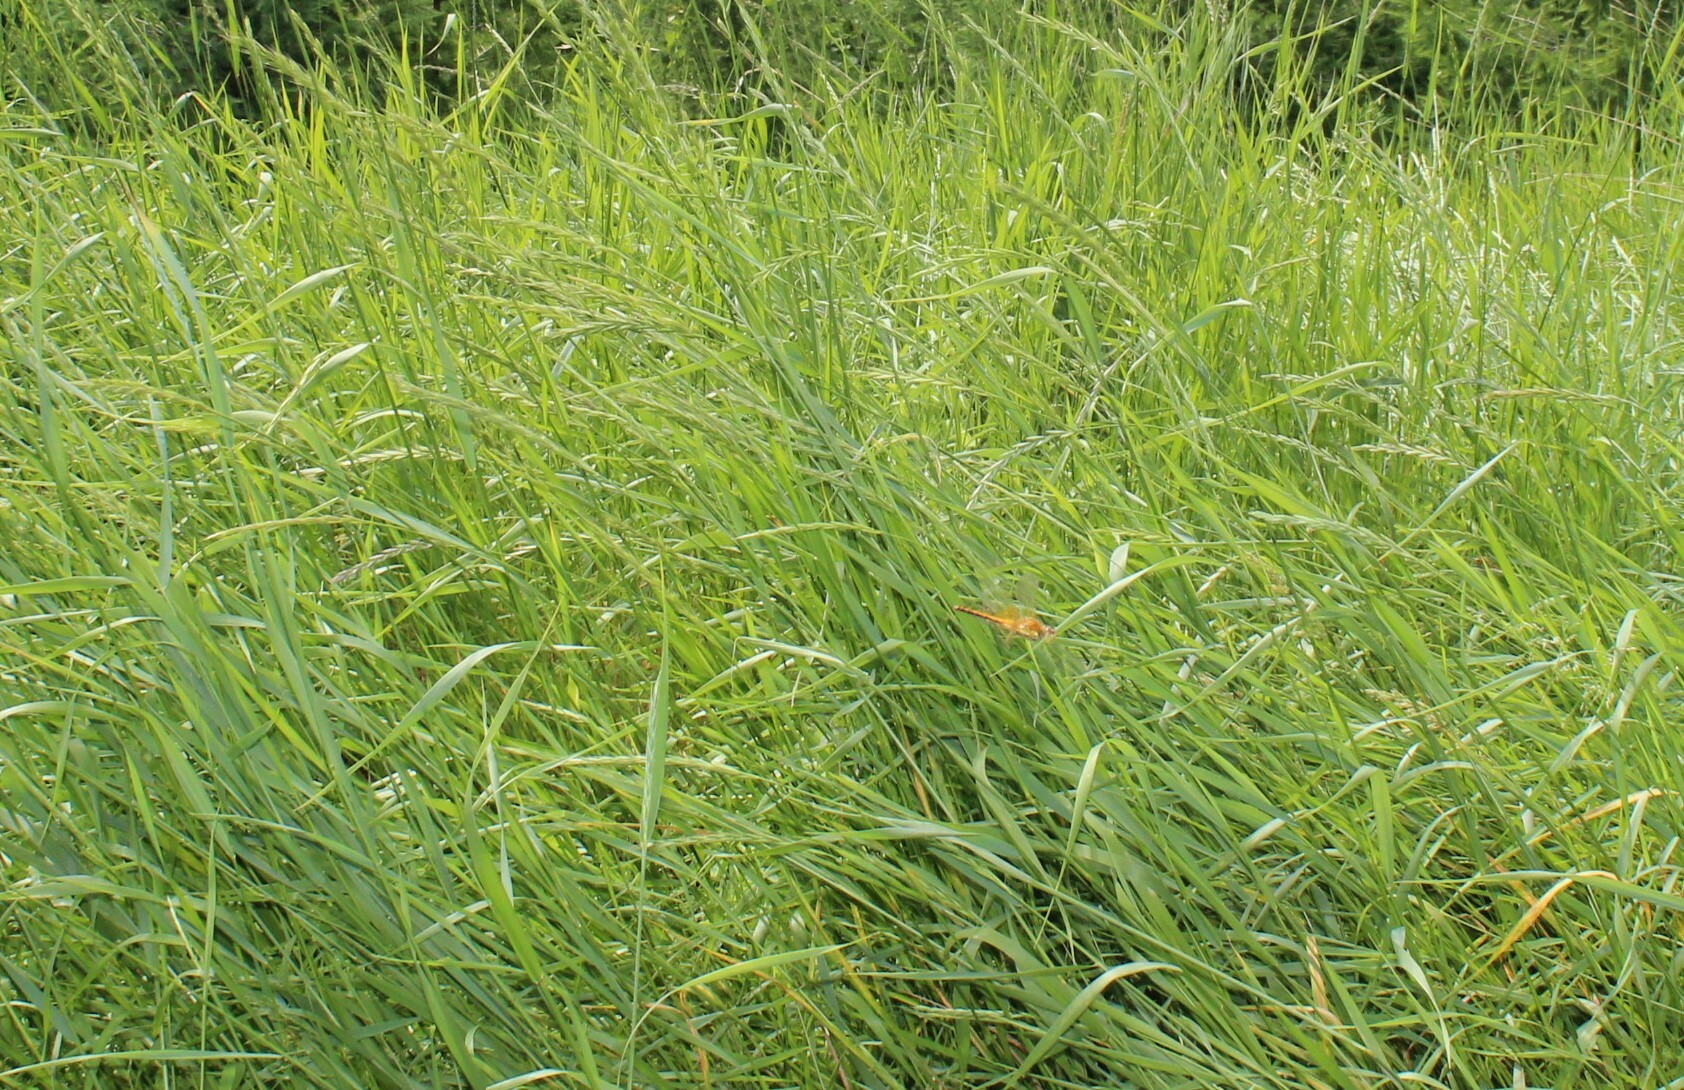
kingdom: Animalia
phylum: Arthropoda
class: Insecta
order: Odonata
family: Libellulidae
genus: Sympetrum
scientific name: Sympetrum flaveolum
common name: Yellow-winged darter
